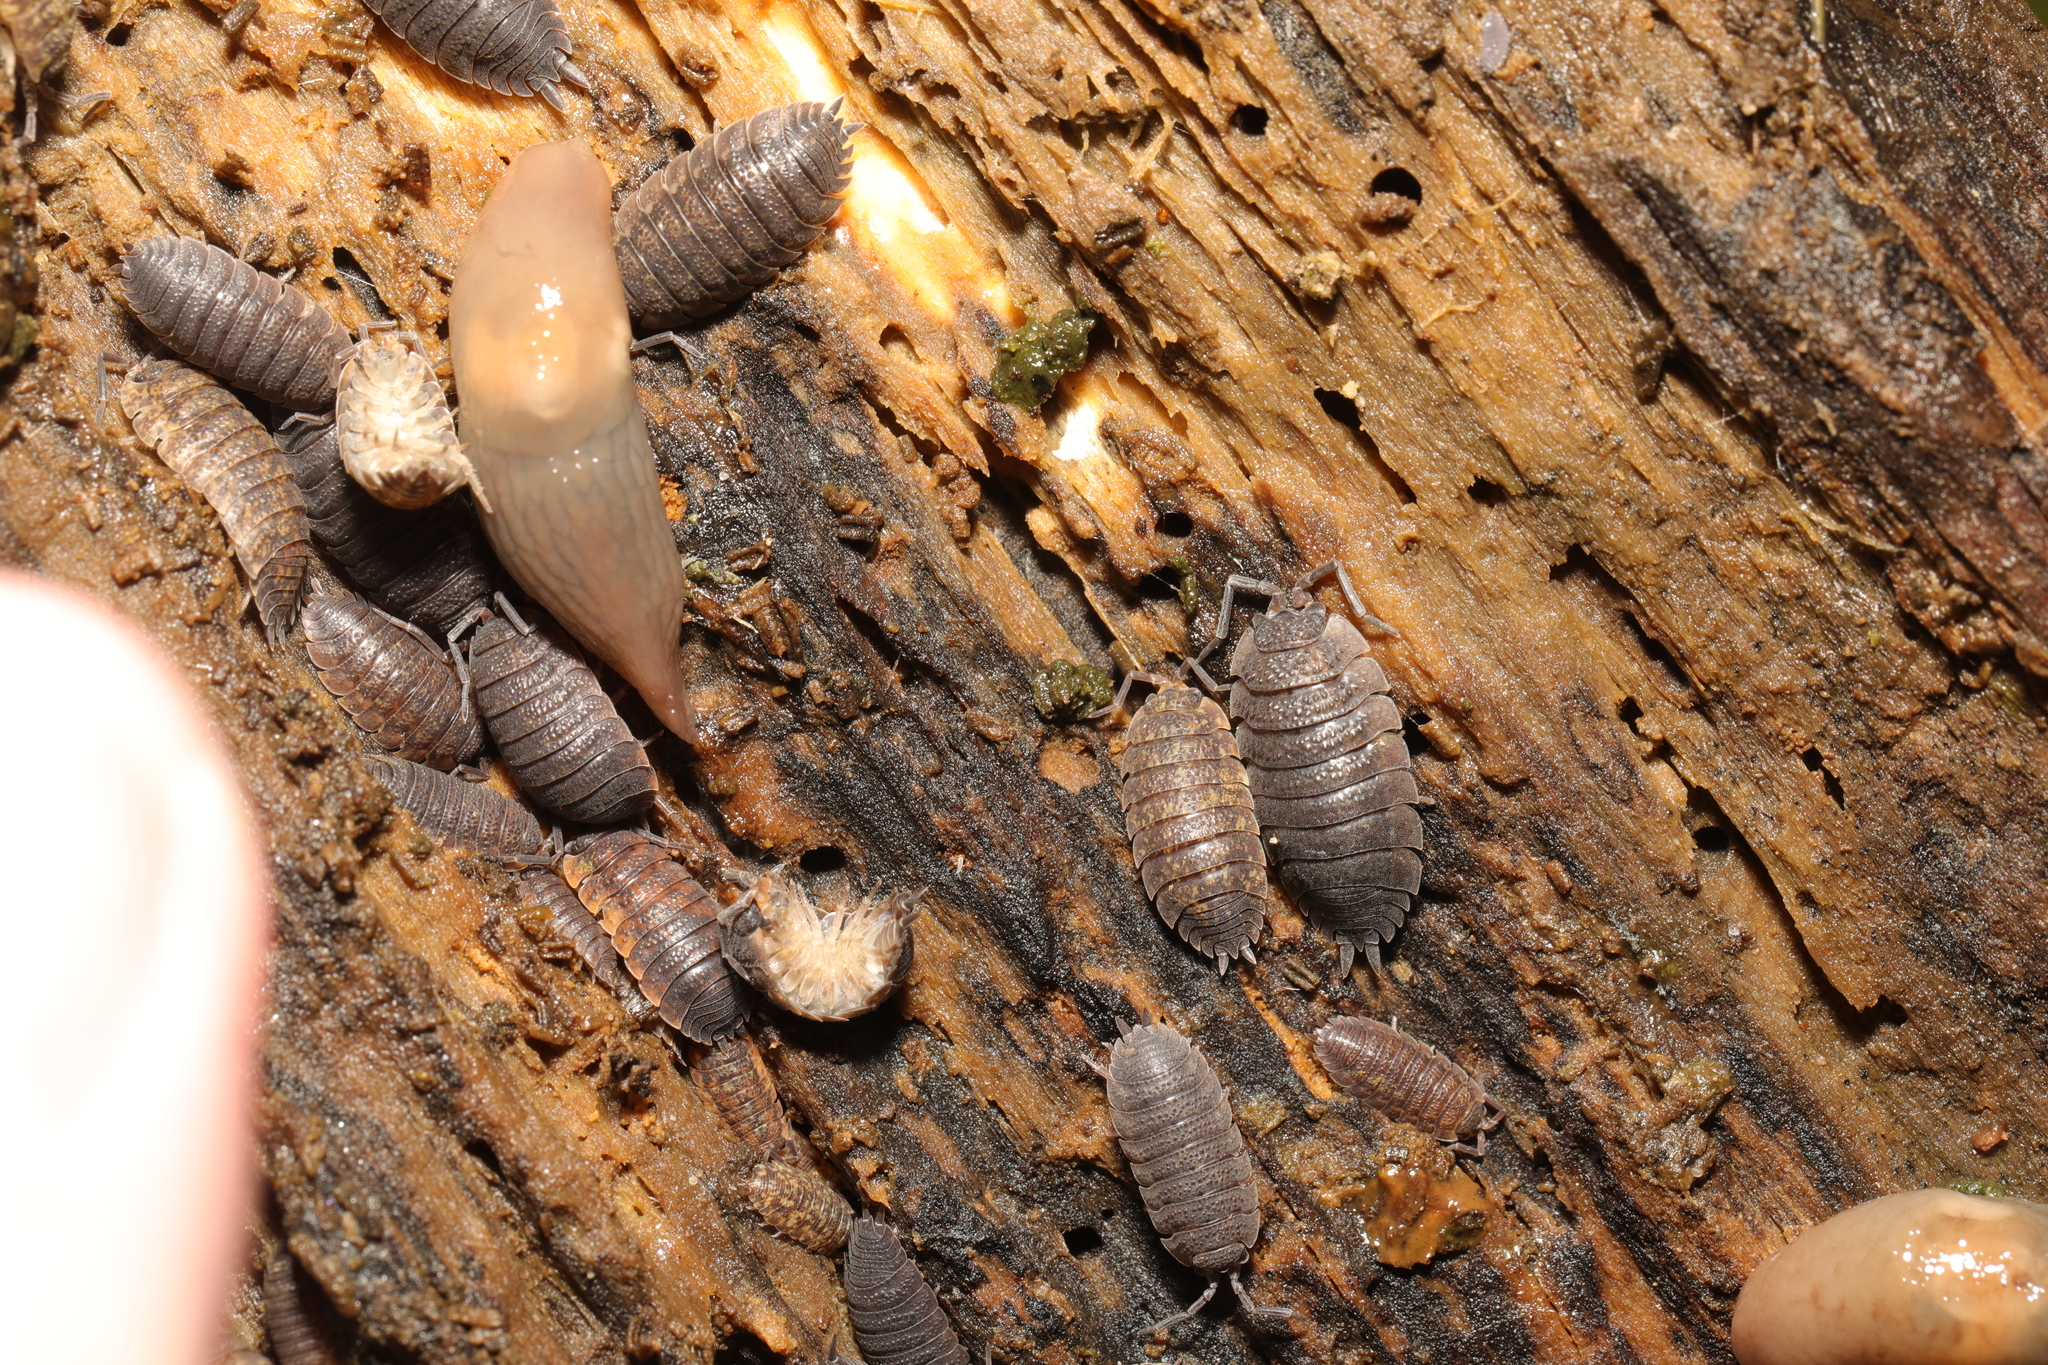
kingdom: Animalia
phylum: Arthropoda
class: Malacostraca
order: Isopoda
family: Porcellionidae
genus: Porcellio
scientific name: Porcellio scaber
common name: Common rough woodlouse
